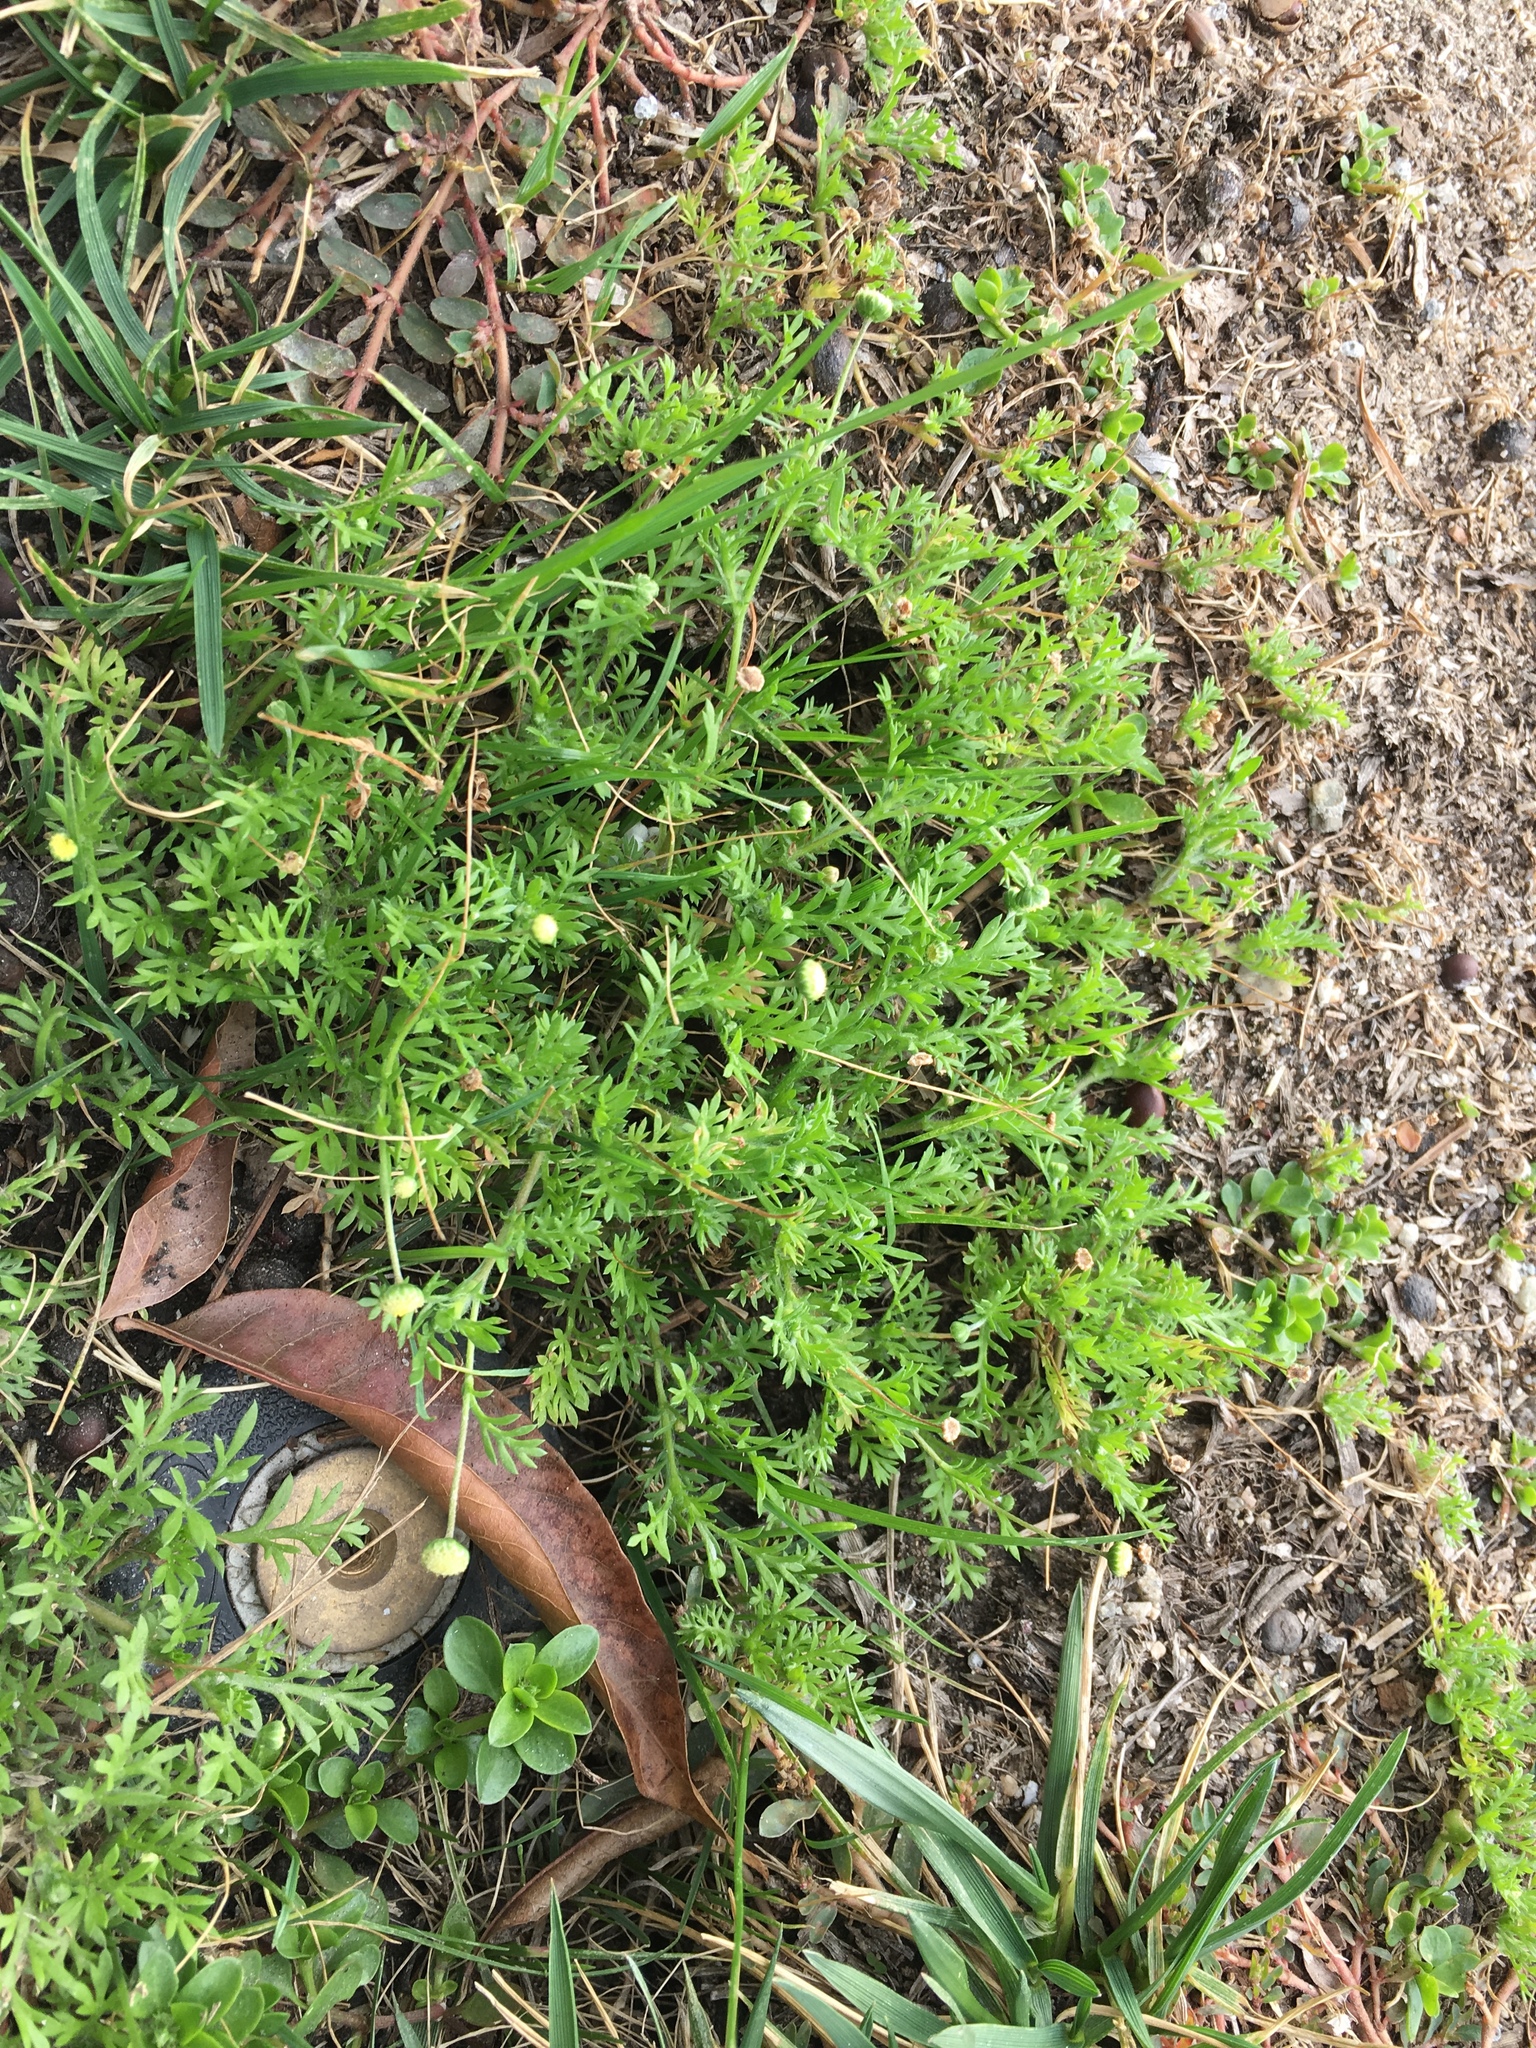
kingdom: Plantae
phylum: Tracheophyta
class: Magnoliopsida
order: Asterales
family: Asteraceae
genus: Cotula
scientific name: Cotula australis
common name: Australian waterbuttons
